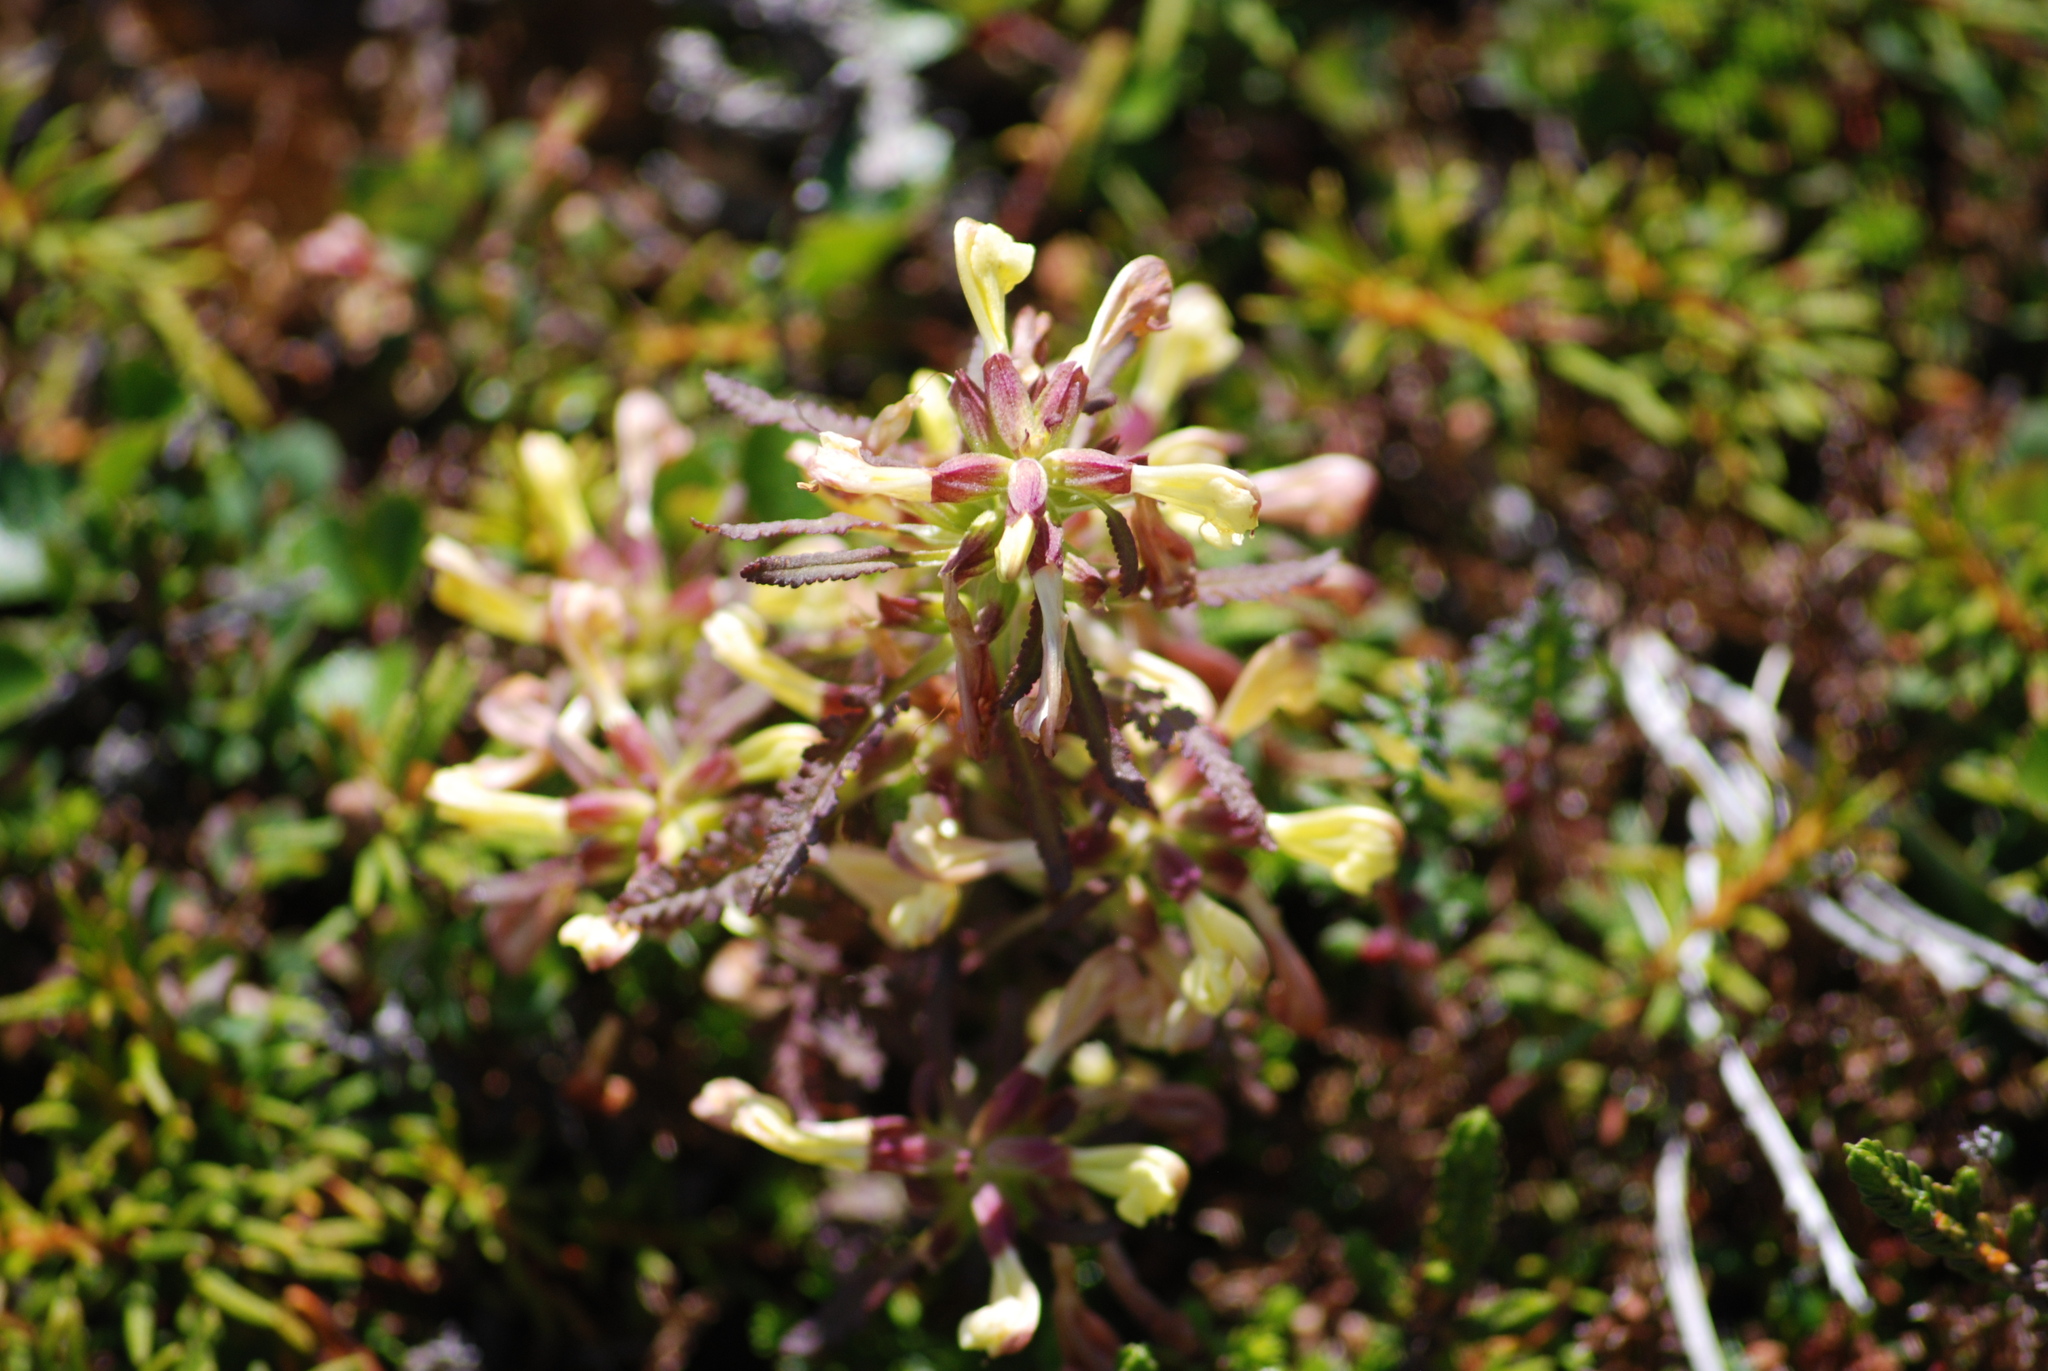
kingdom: Plantae
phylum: Tracheophyta
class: Magnoliopsida
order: Lamiales
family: Orobanchaceae
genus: Pedicularis
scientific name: Pedicularis labradorica
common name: Labrador lousewort
